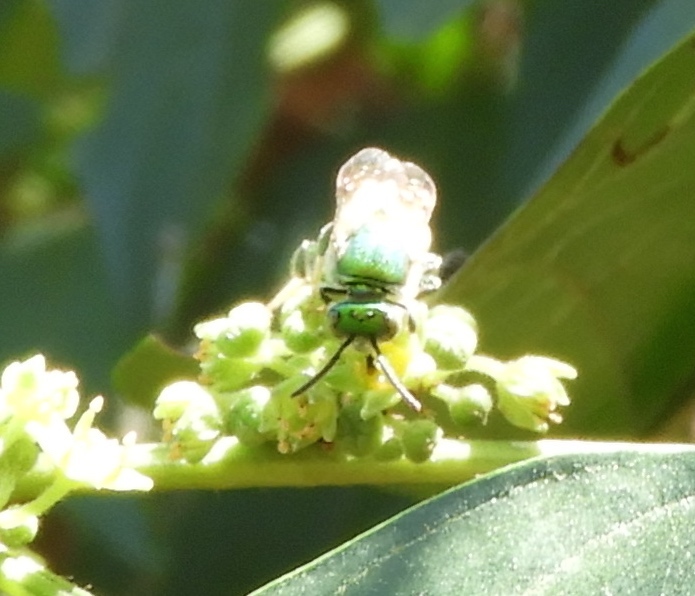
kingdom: Animalia
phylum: Arthropoda
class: Insecta
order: Hymenoptera
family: Halictidae
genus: Augochloropsis
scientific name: Augochloropsis
